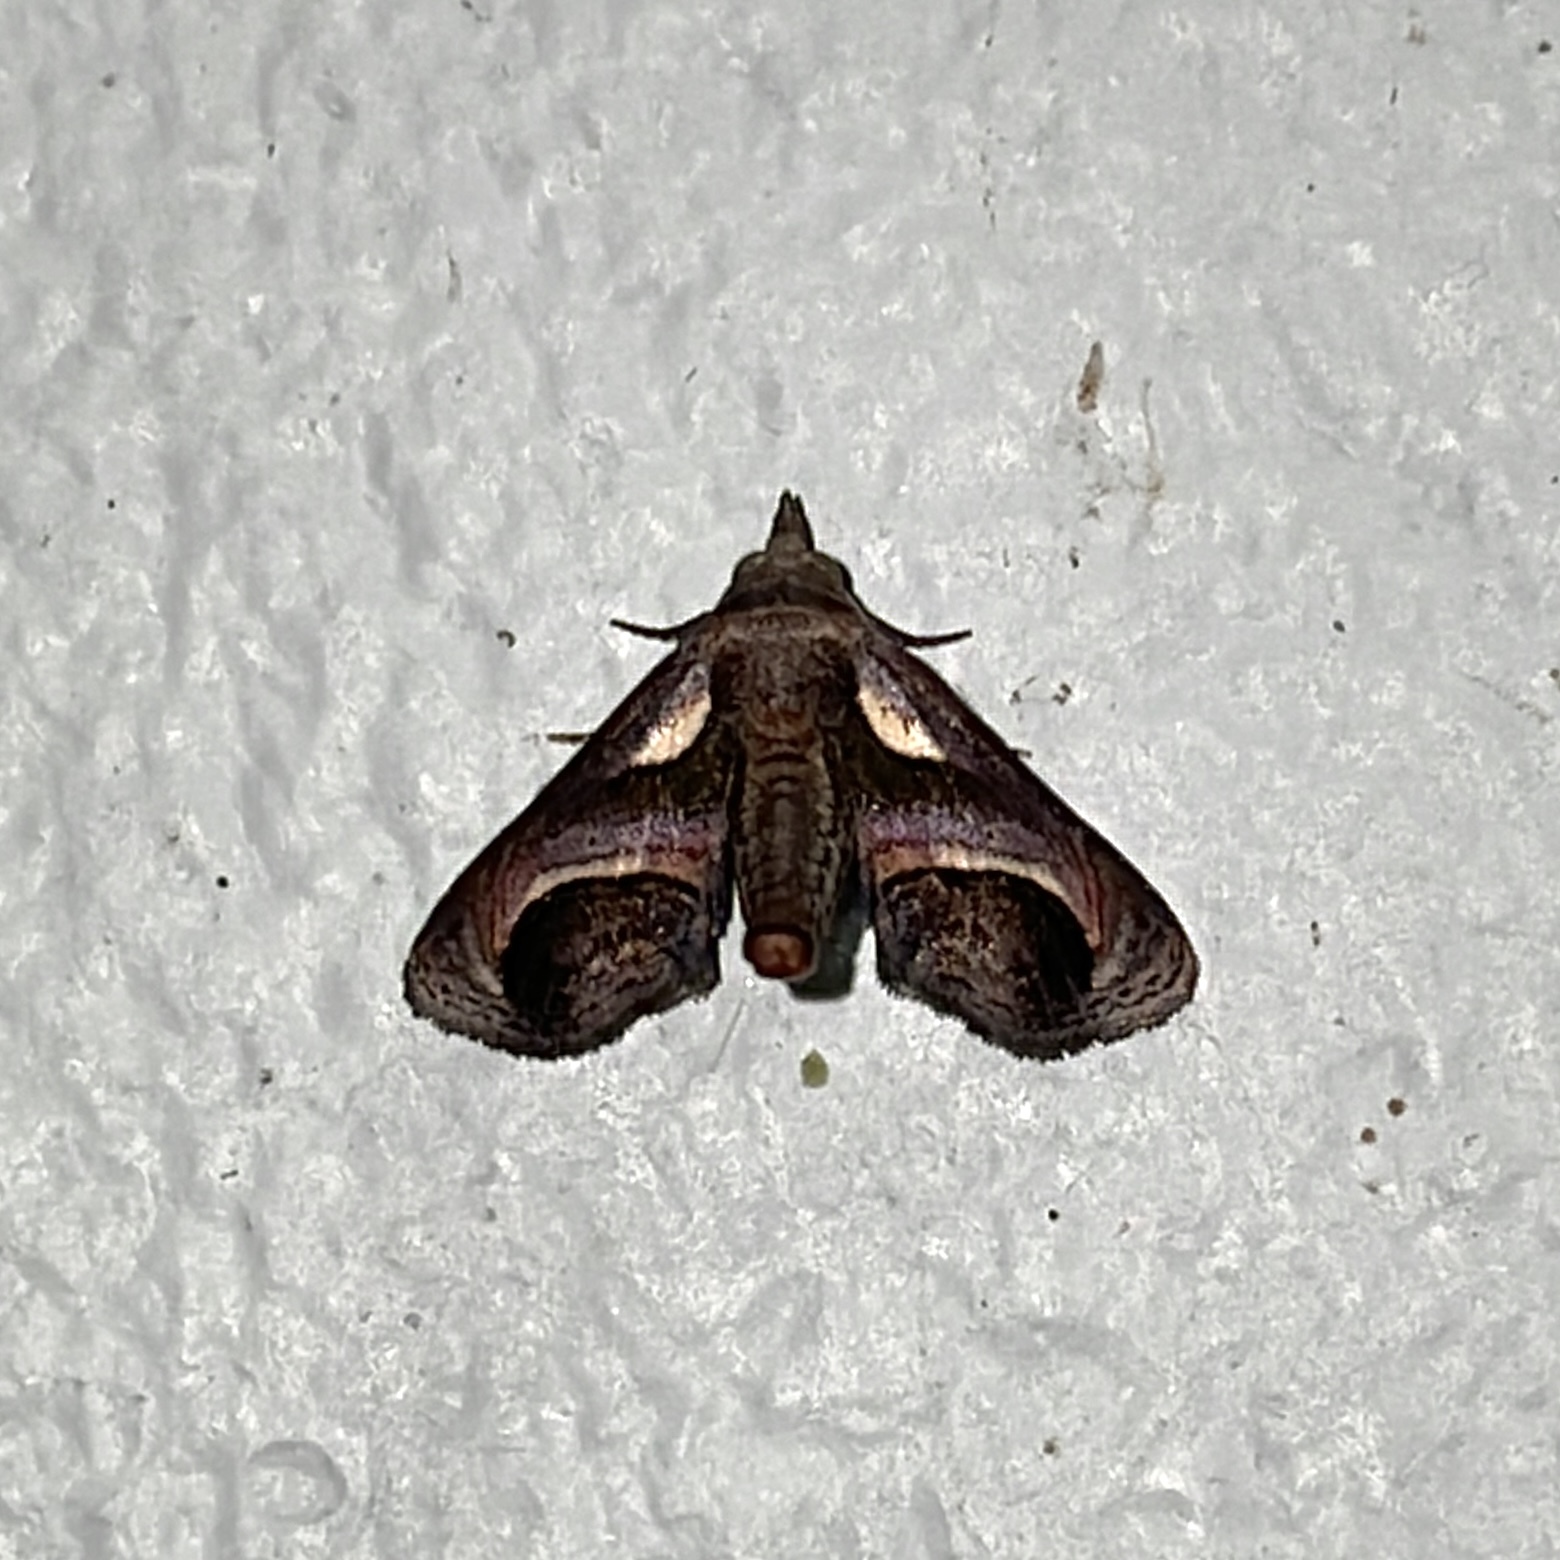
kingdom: Animalia
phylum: Arthropoda
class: Insecta
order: Lepidoptera
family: Euteliidae
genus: Paectes
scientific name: Paectes semicircularis
